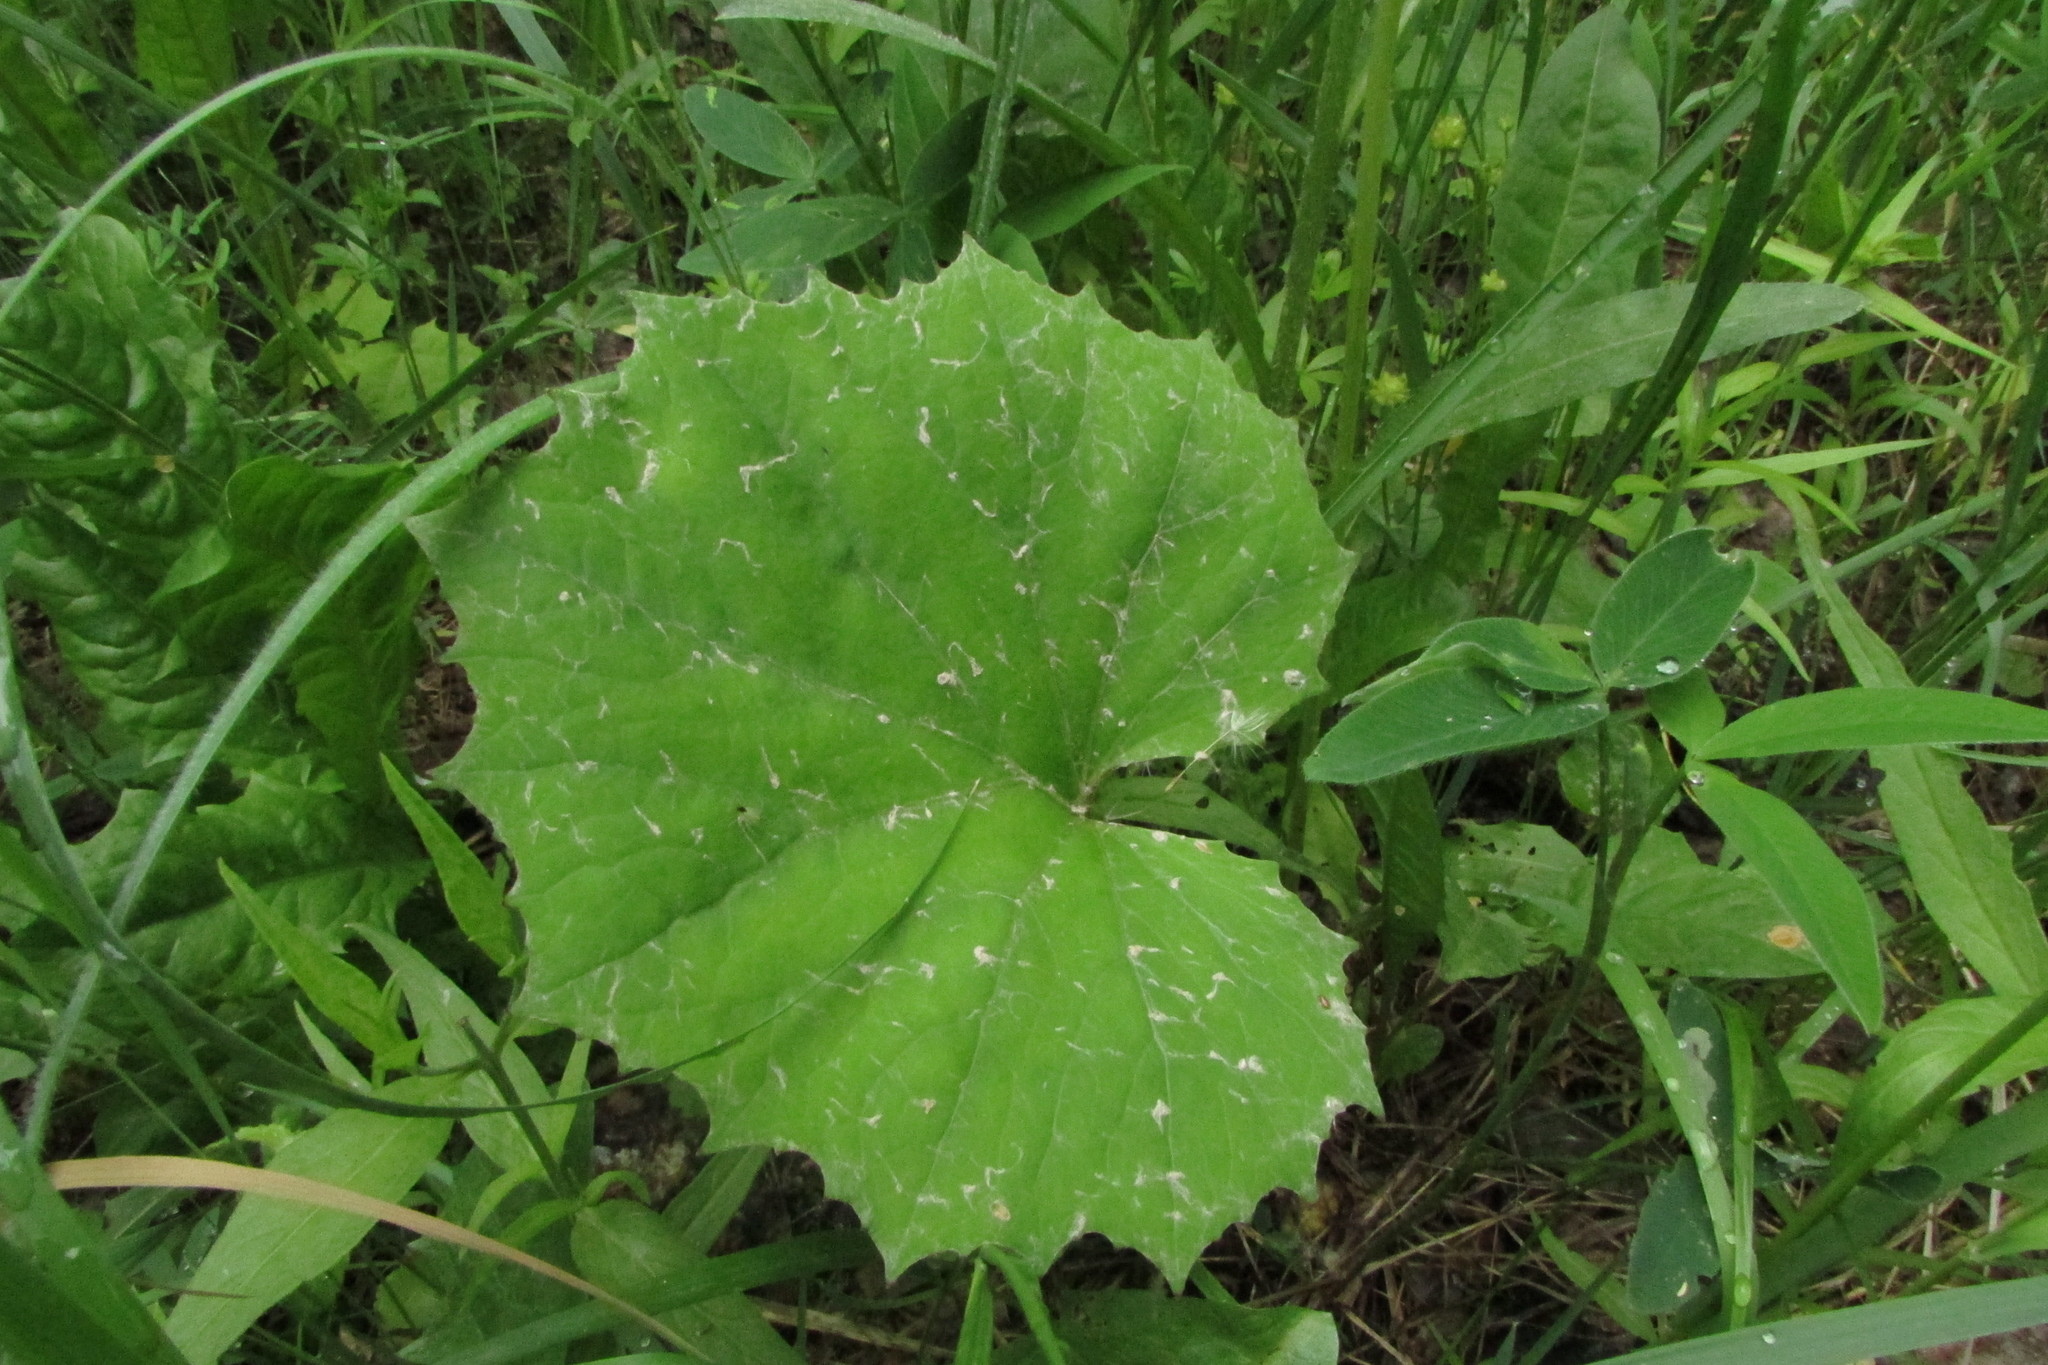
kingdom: Plantae
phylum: Tracheophyta
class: Magnoliopsida
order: Asterales
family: Asteraceae
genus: Tussilago
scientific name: Tussilago farfara
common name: Coltsfoot
